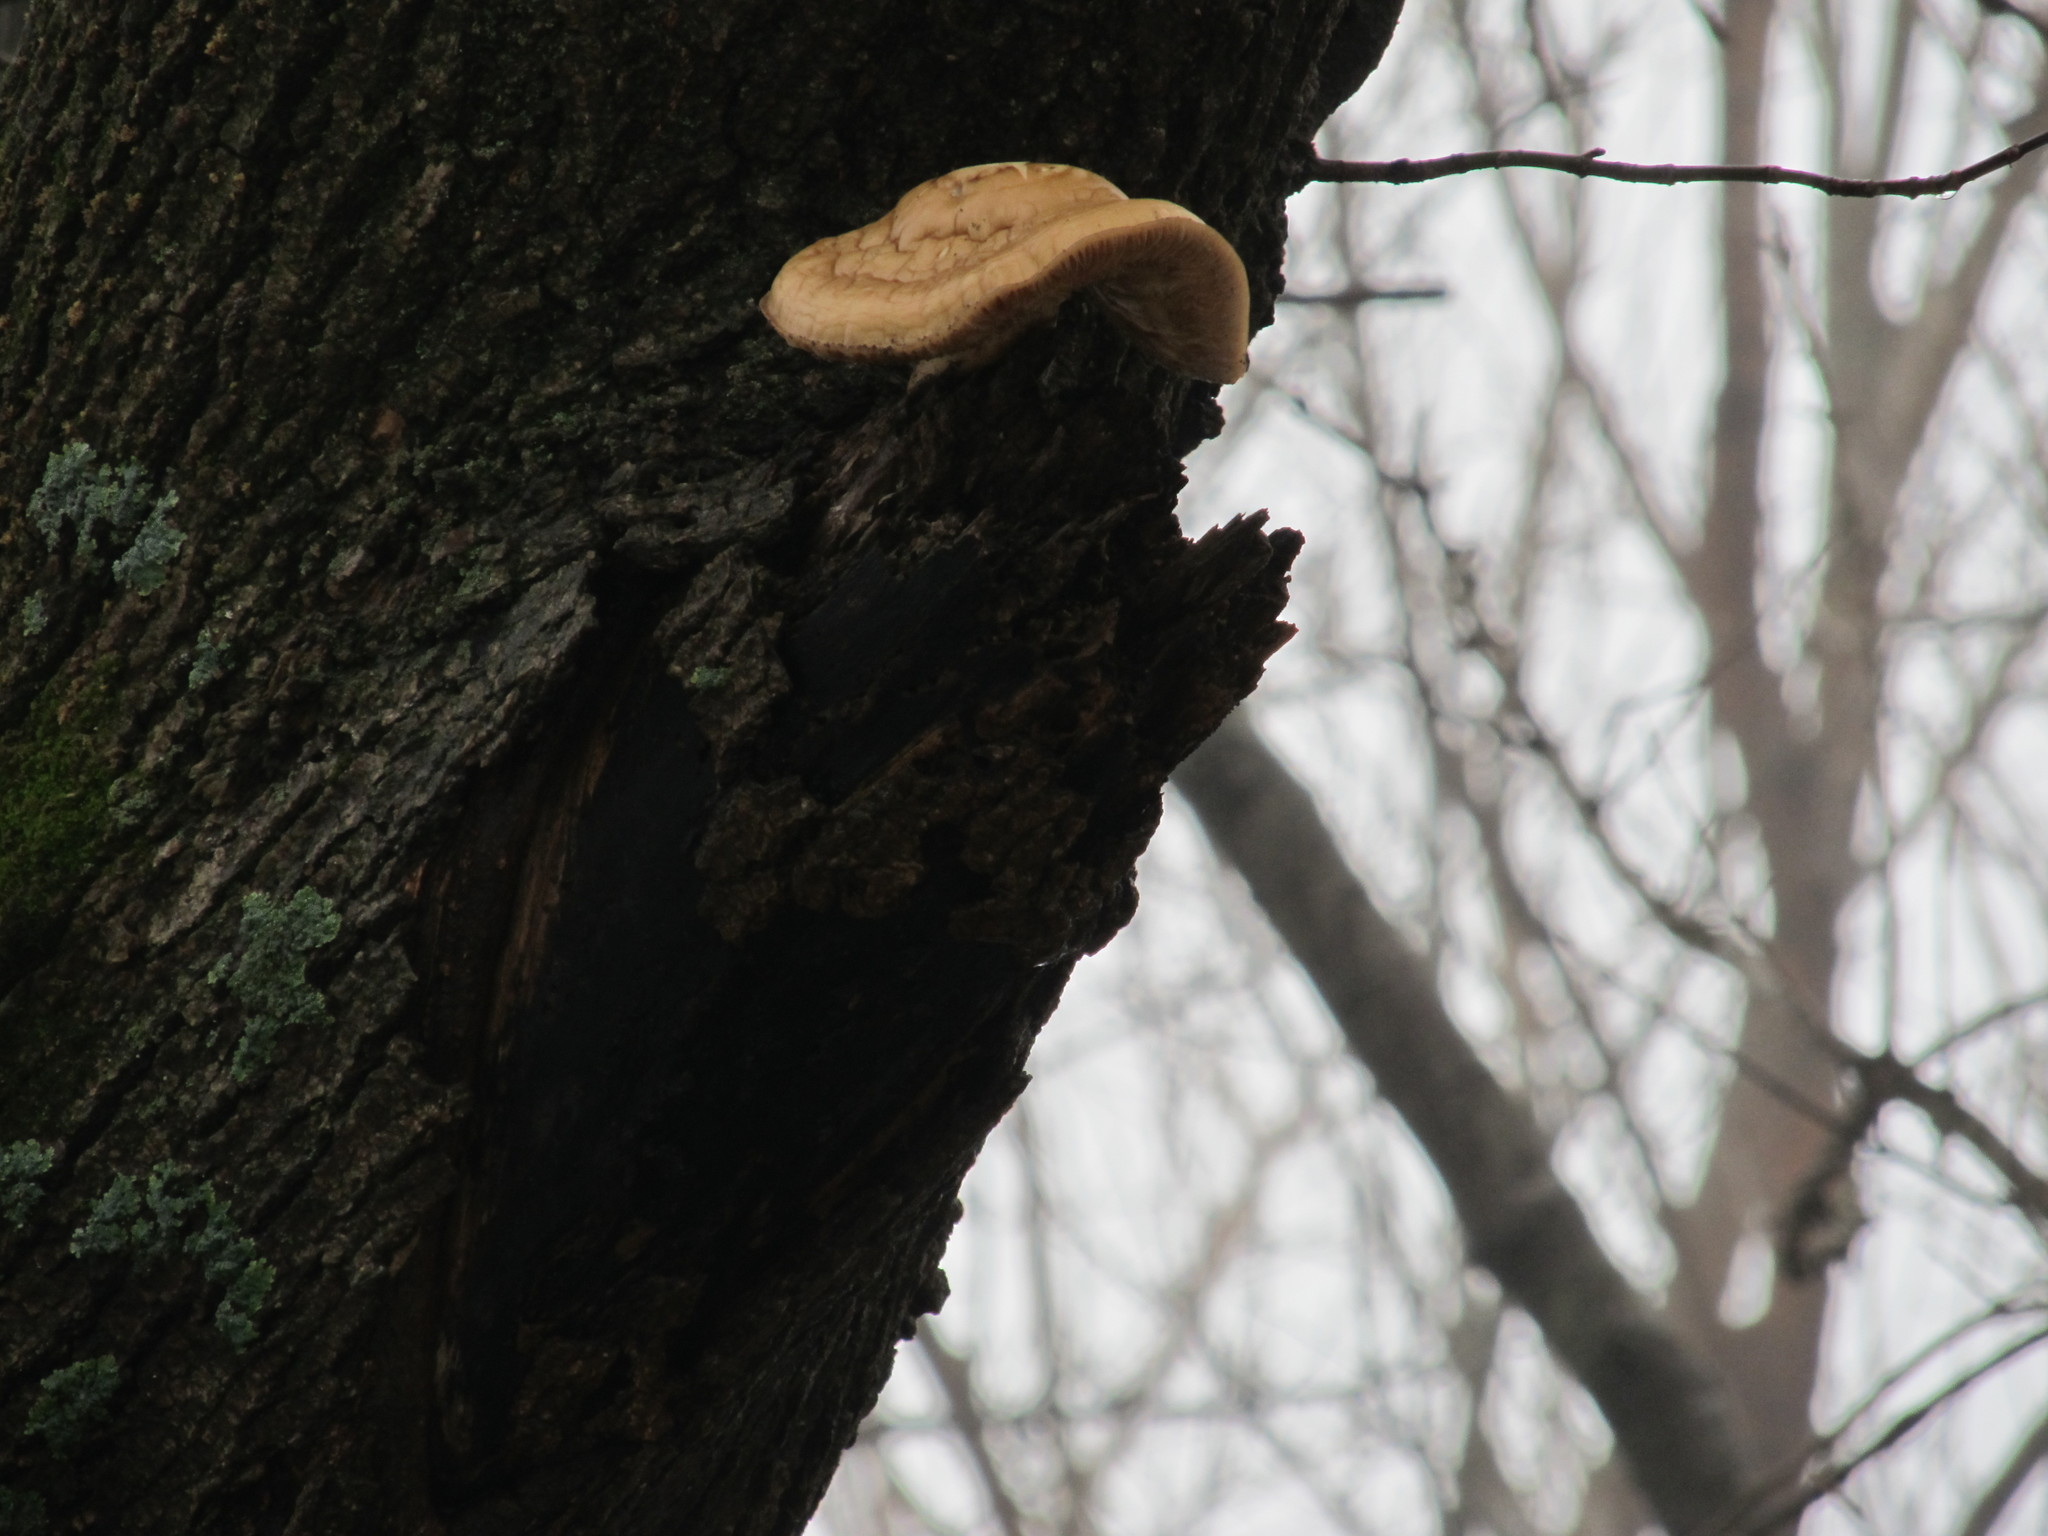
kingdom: Fungi
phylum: Basidiomycota
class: Agaricomycetes
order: Polyporales
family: Polyporaceae
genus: Cerioporus
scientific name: Cerioporus squamosus
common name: Dryad's saddle
